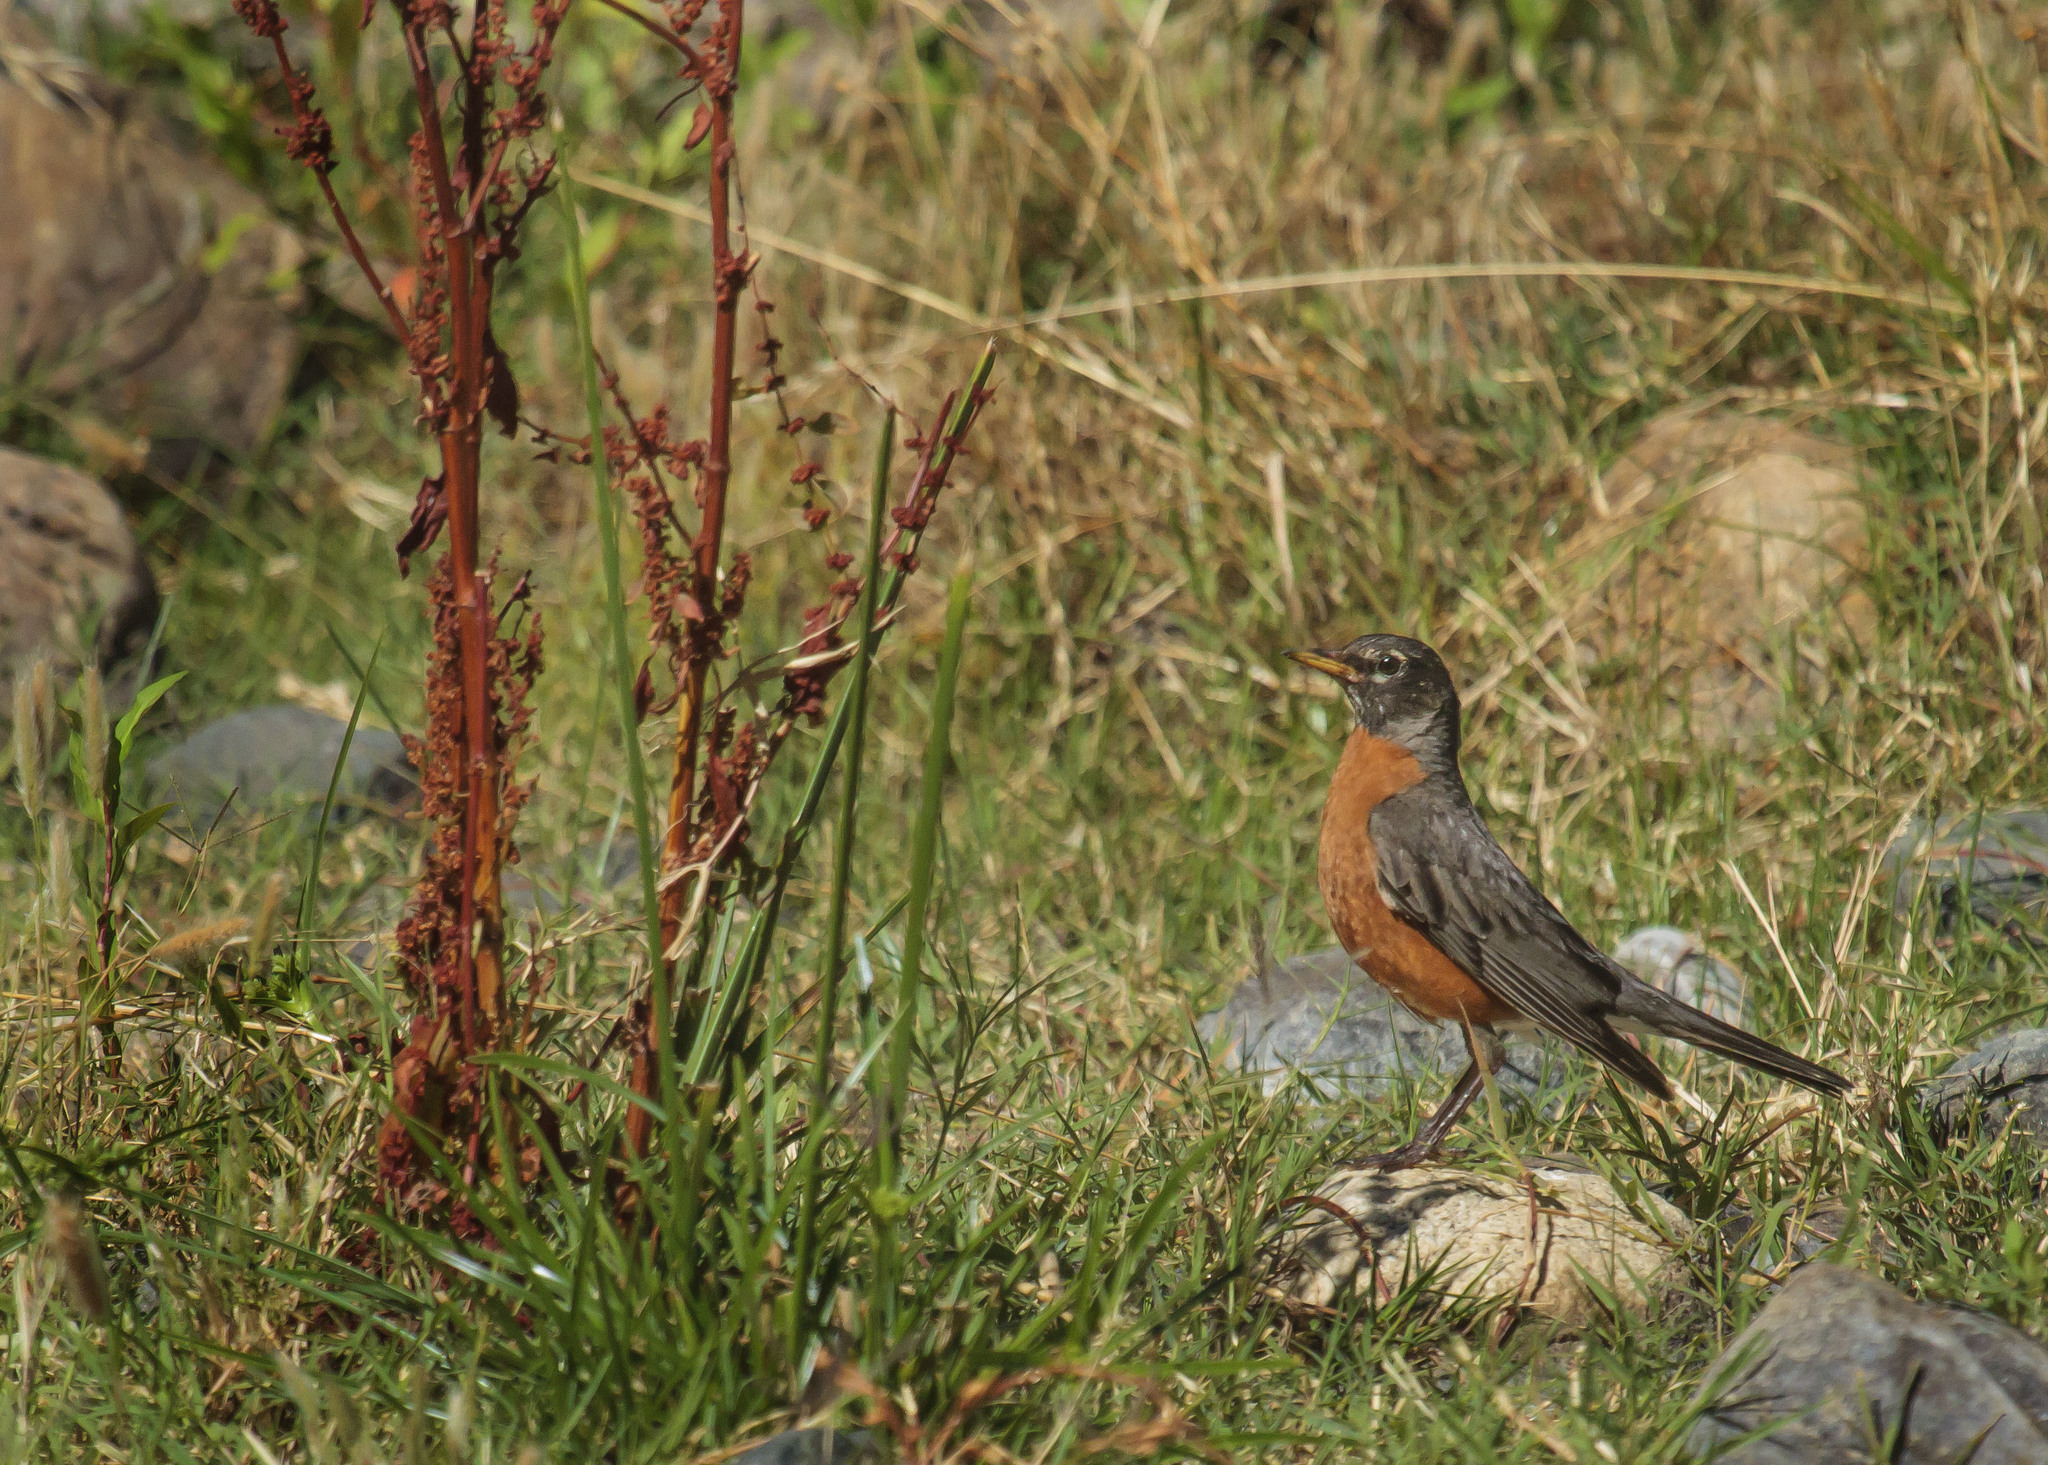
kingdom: Animalia
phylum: Chordata
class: Aves
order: Passeriformes
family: Turdidae
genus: Turdus
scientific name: Turdus migratorius
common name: American robin
